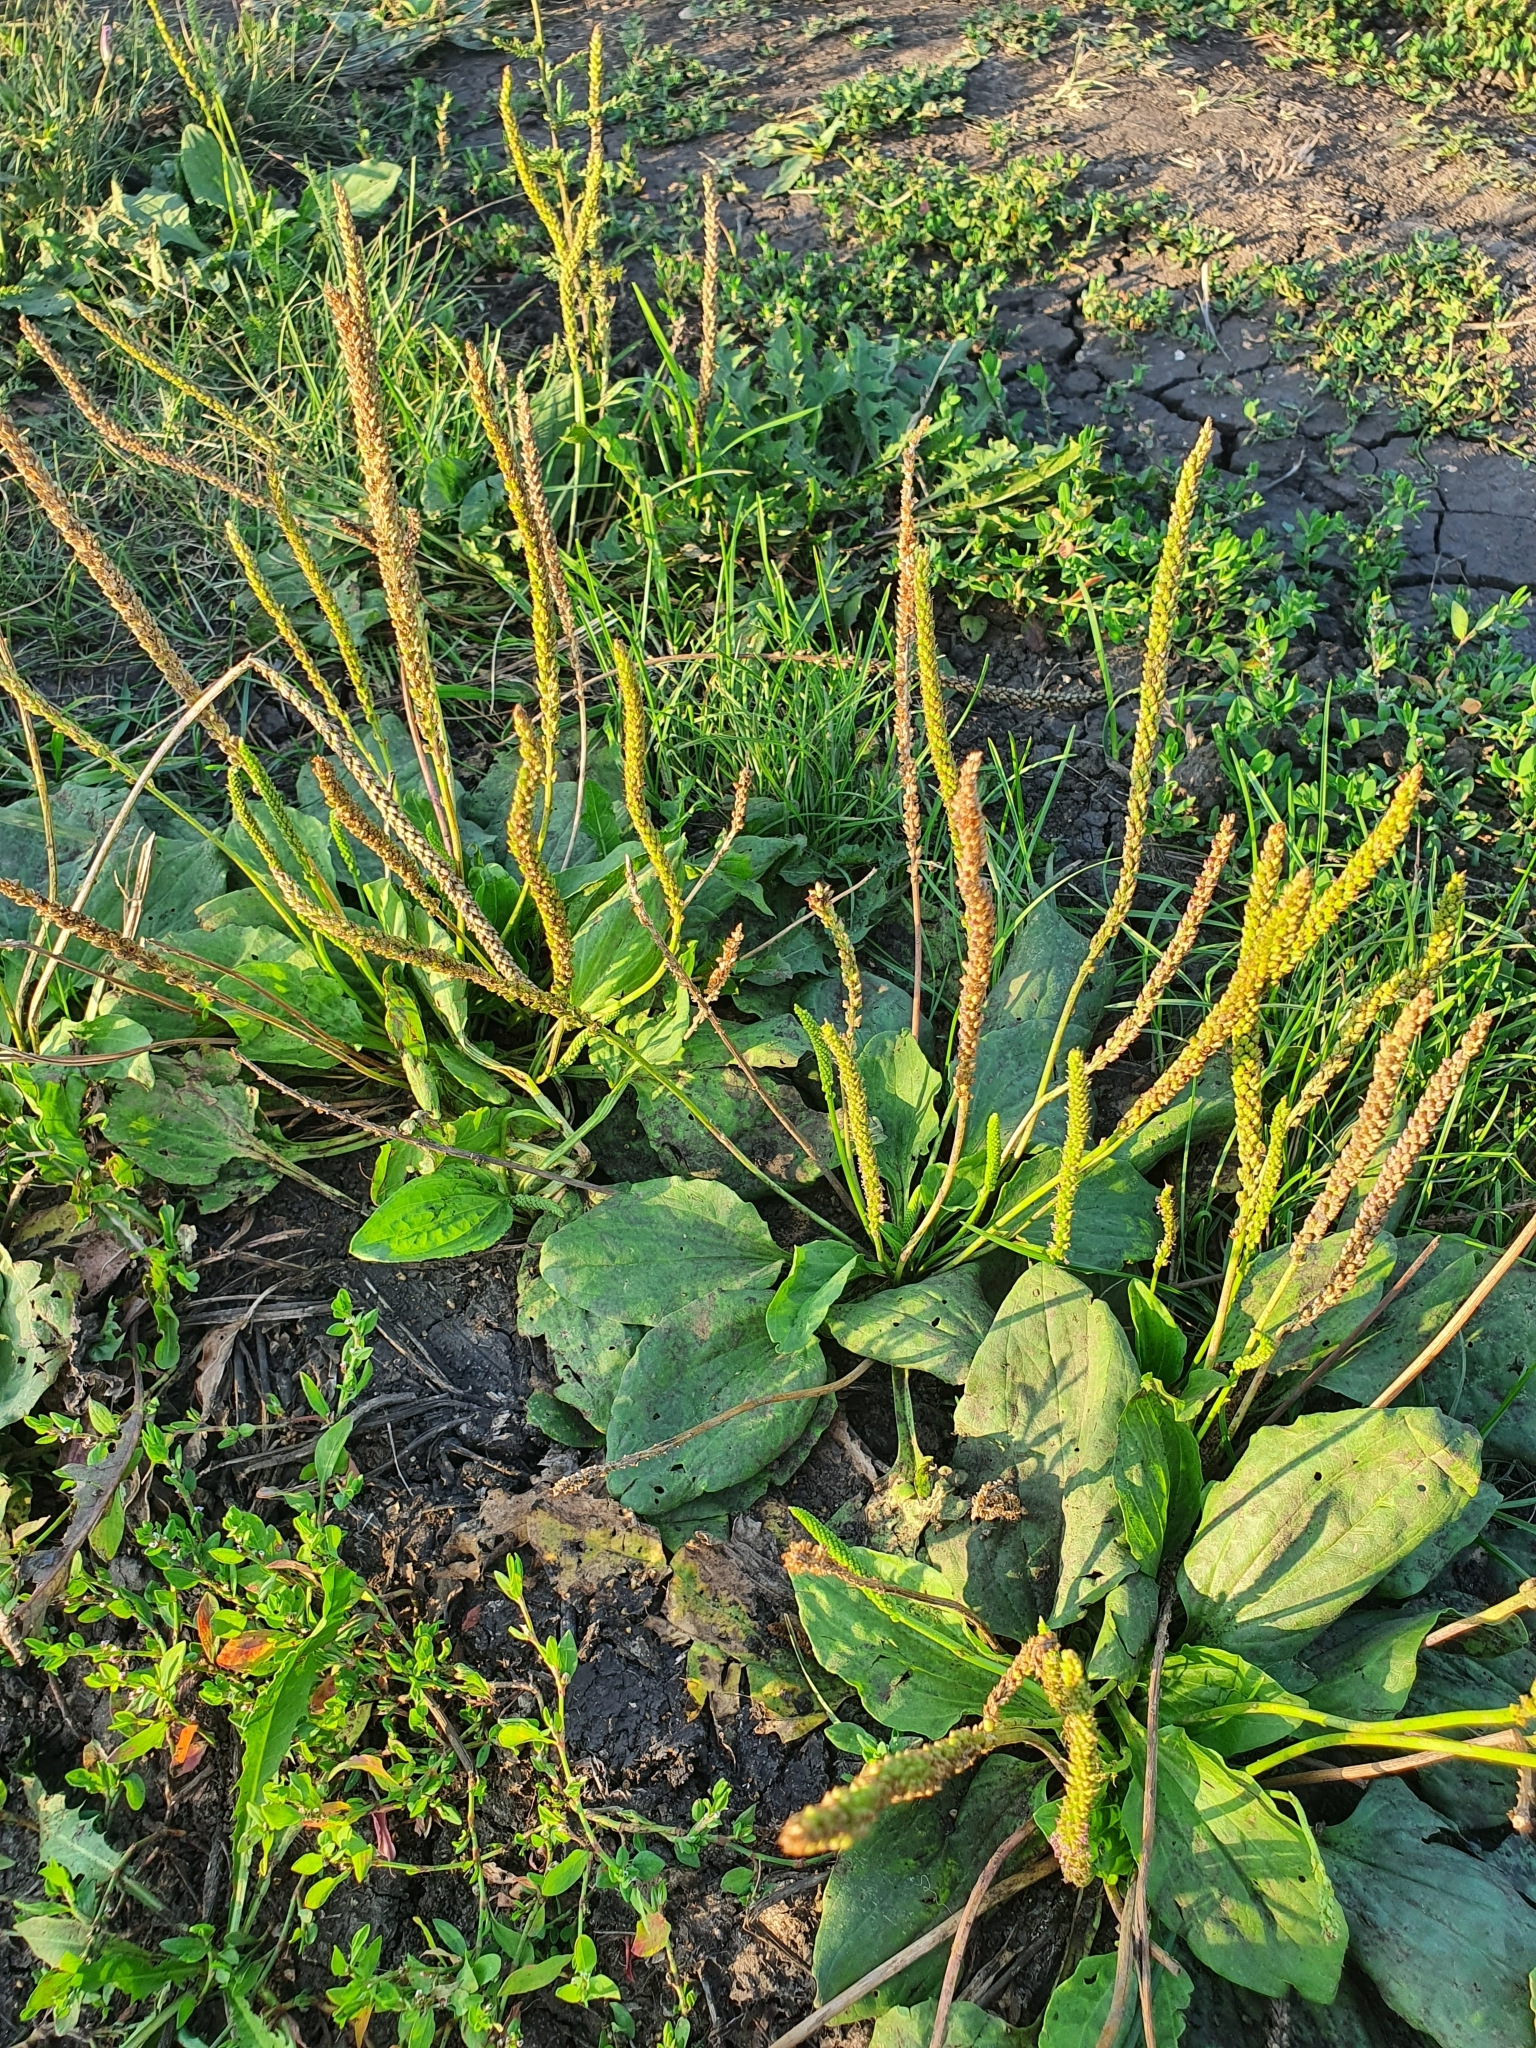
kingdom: Plantae
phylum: Tracheophyta
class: Magnoliopsida
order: Lamiales
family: Plantaginaceae
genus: Plantago
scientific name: Plantago major
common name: Common plantain
